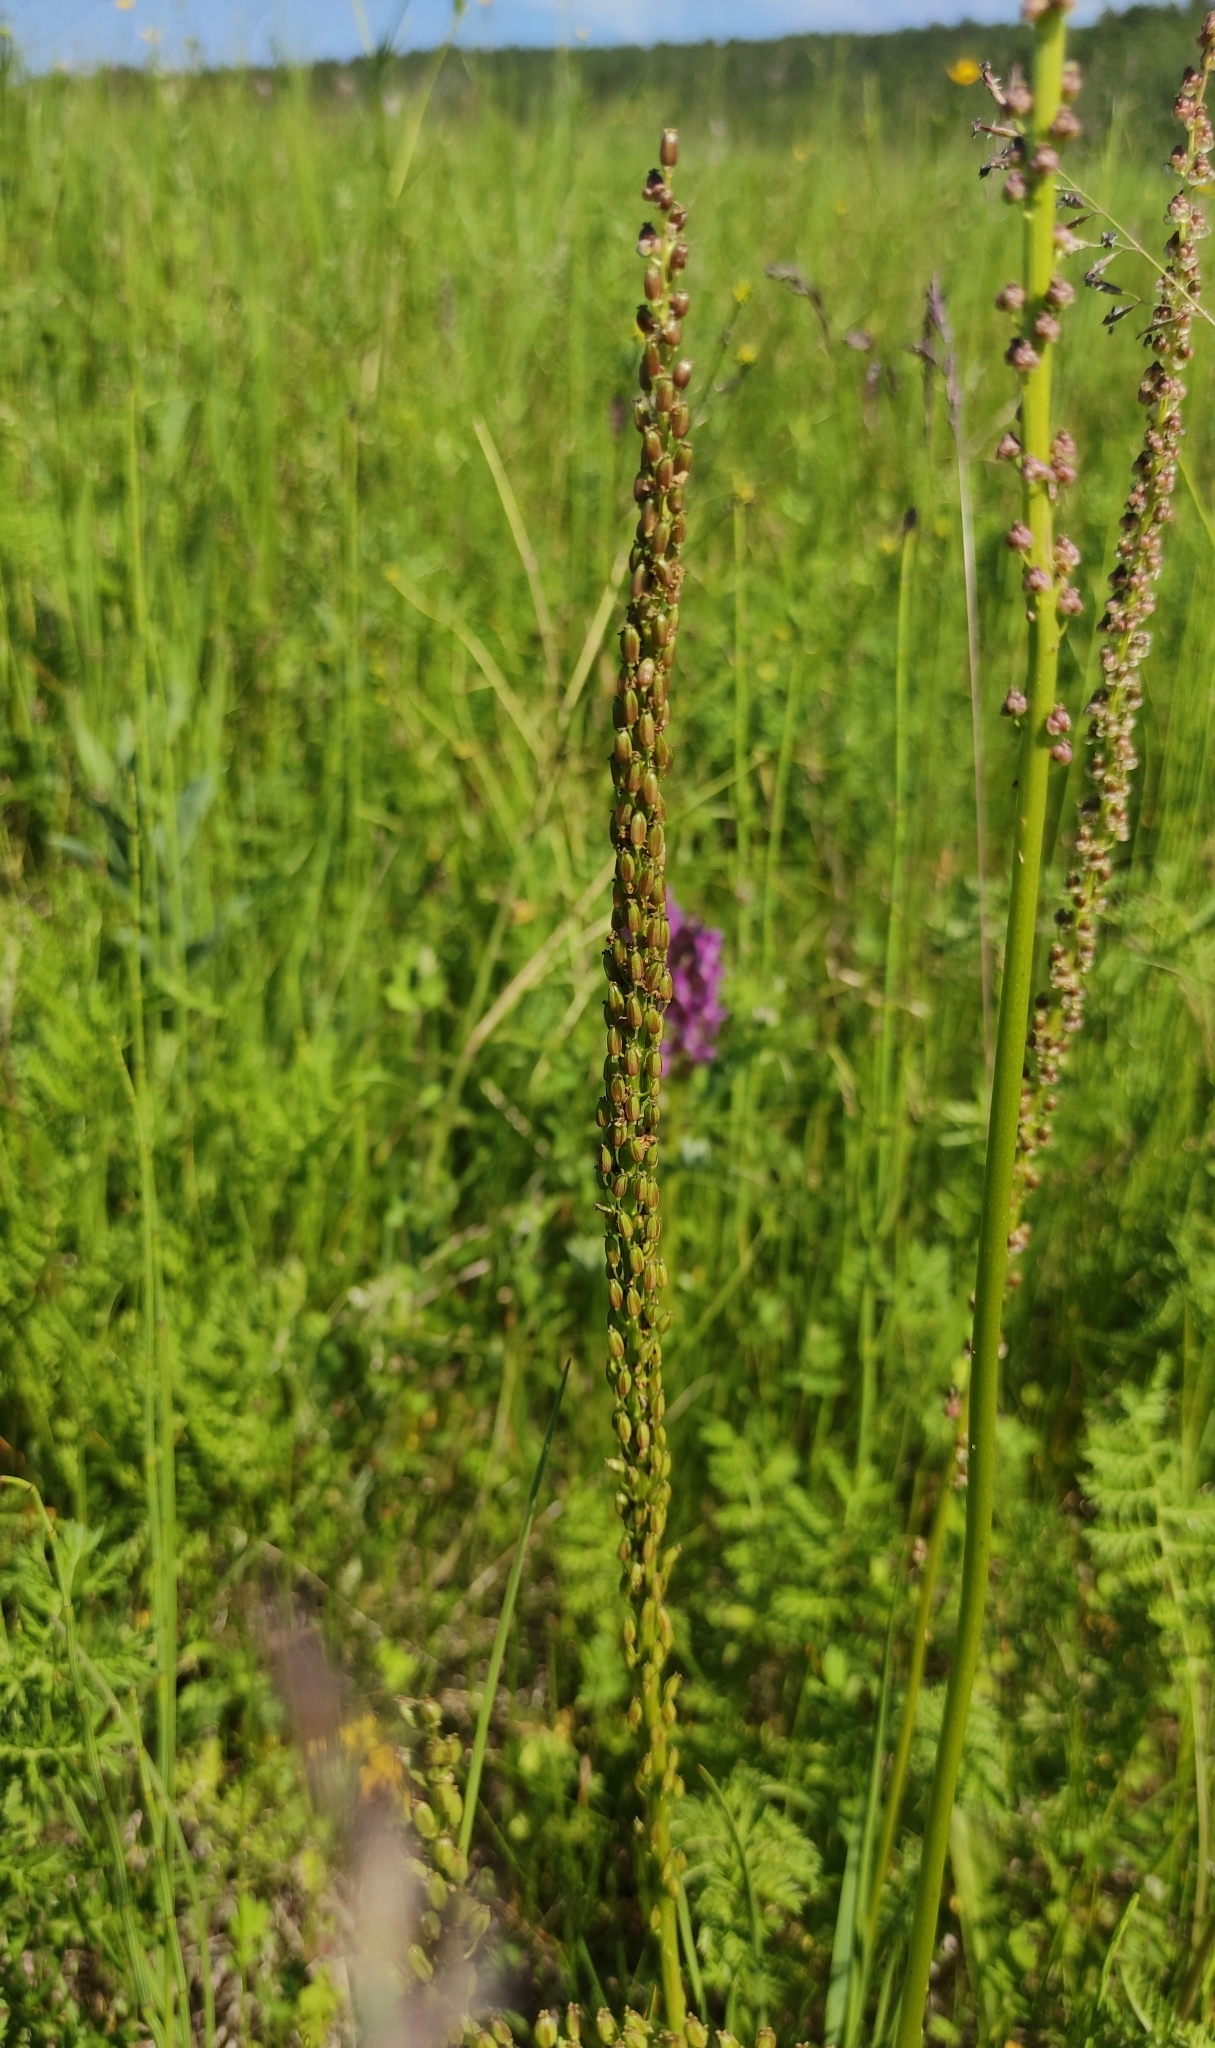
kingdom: Plantae
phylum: Tracheophyta
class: Liliopsida
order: Alismatales
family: Juncaginaceae
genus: Triglochin
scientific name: Triglochin maritima
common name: Sea arrowgrass
